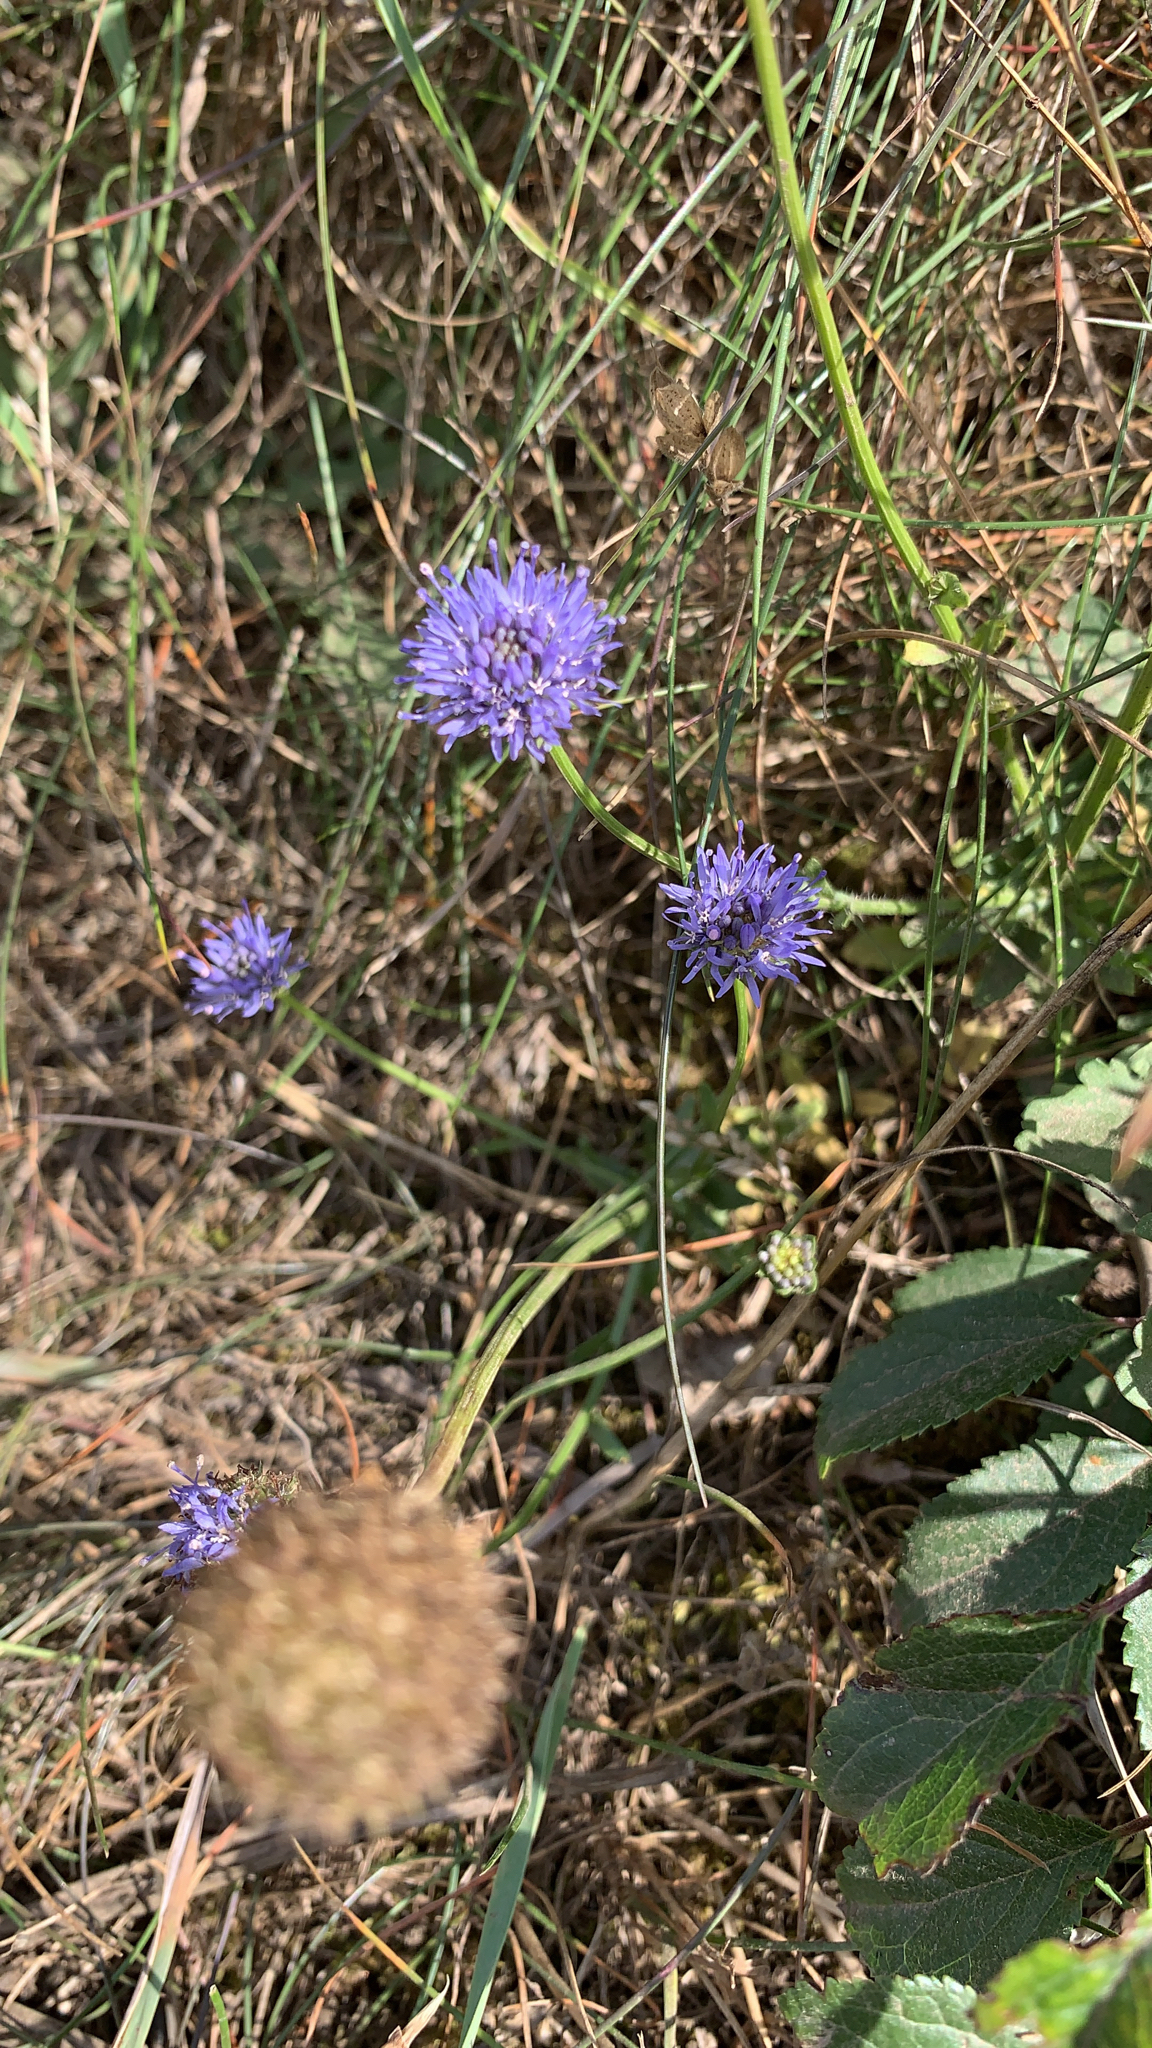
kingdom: Plantae
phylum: Tracheophyta
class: Magnoliopsida
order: Asterales
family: Campanulaceae
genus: Jasione
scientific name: Jasione montana
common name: Sheep's-bit
